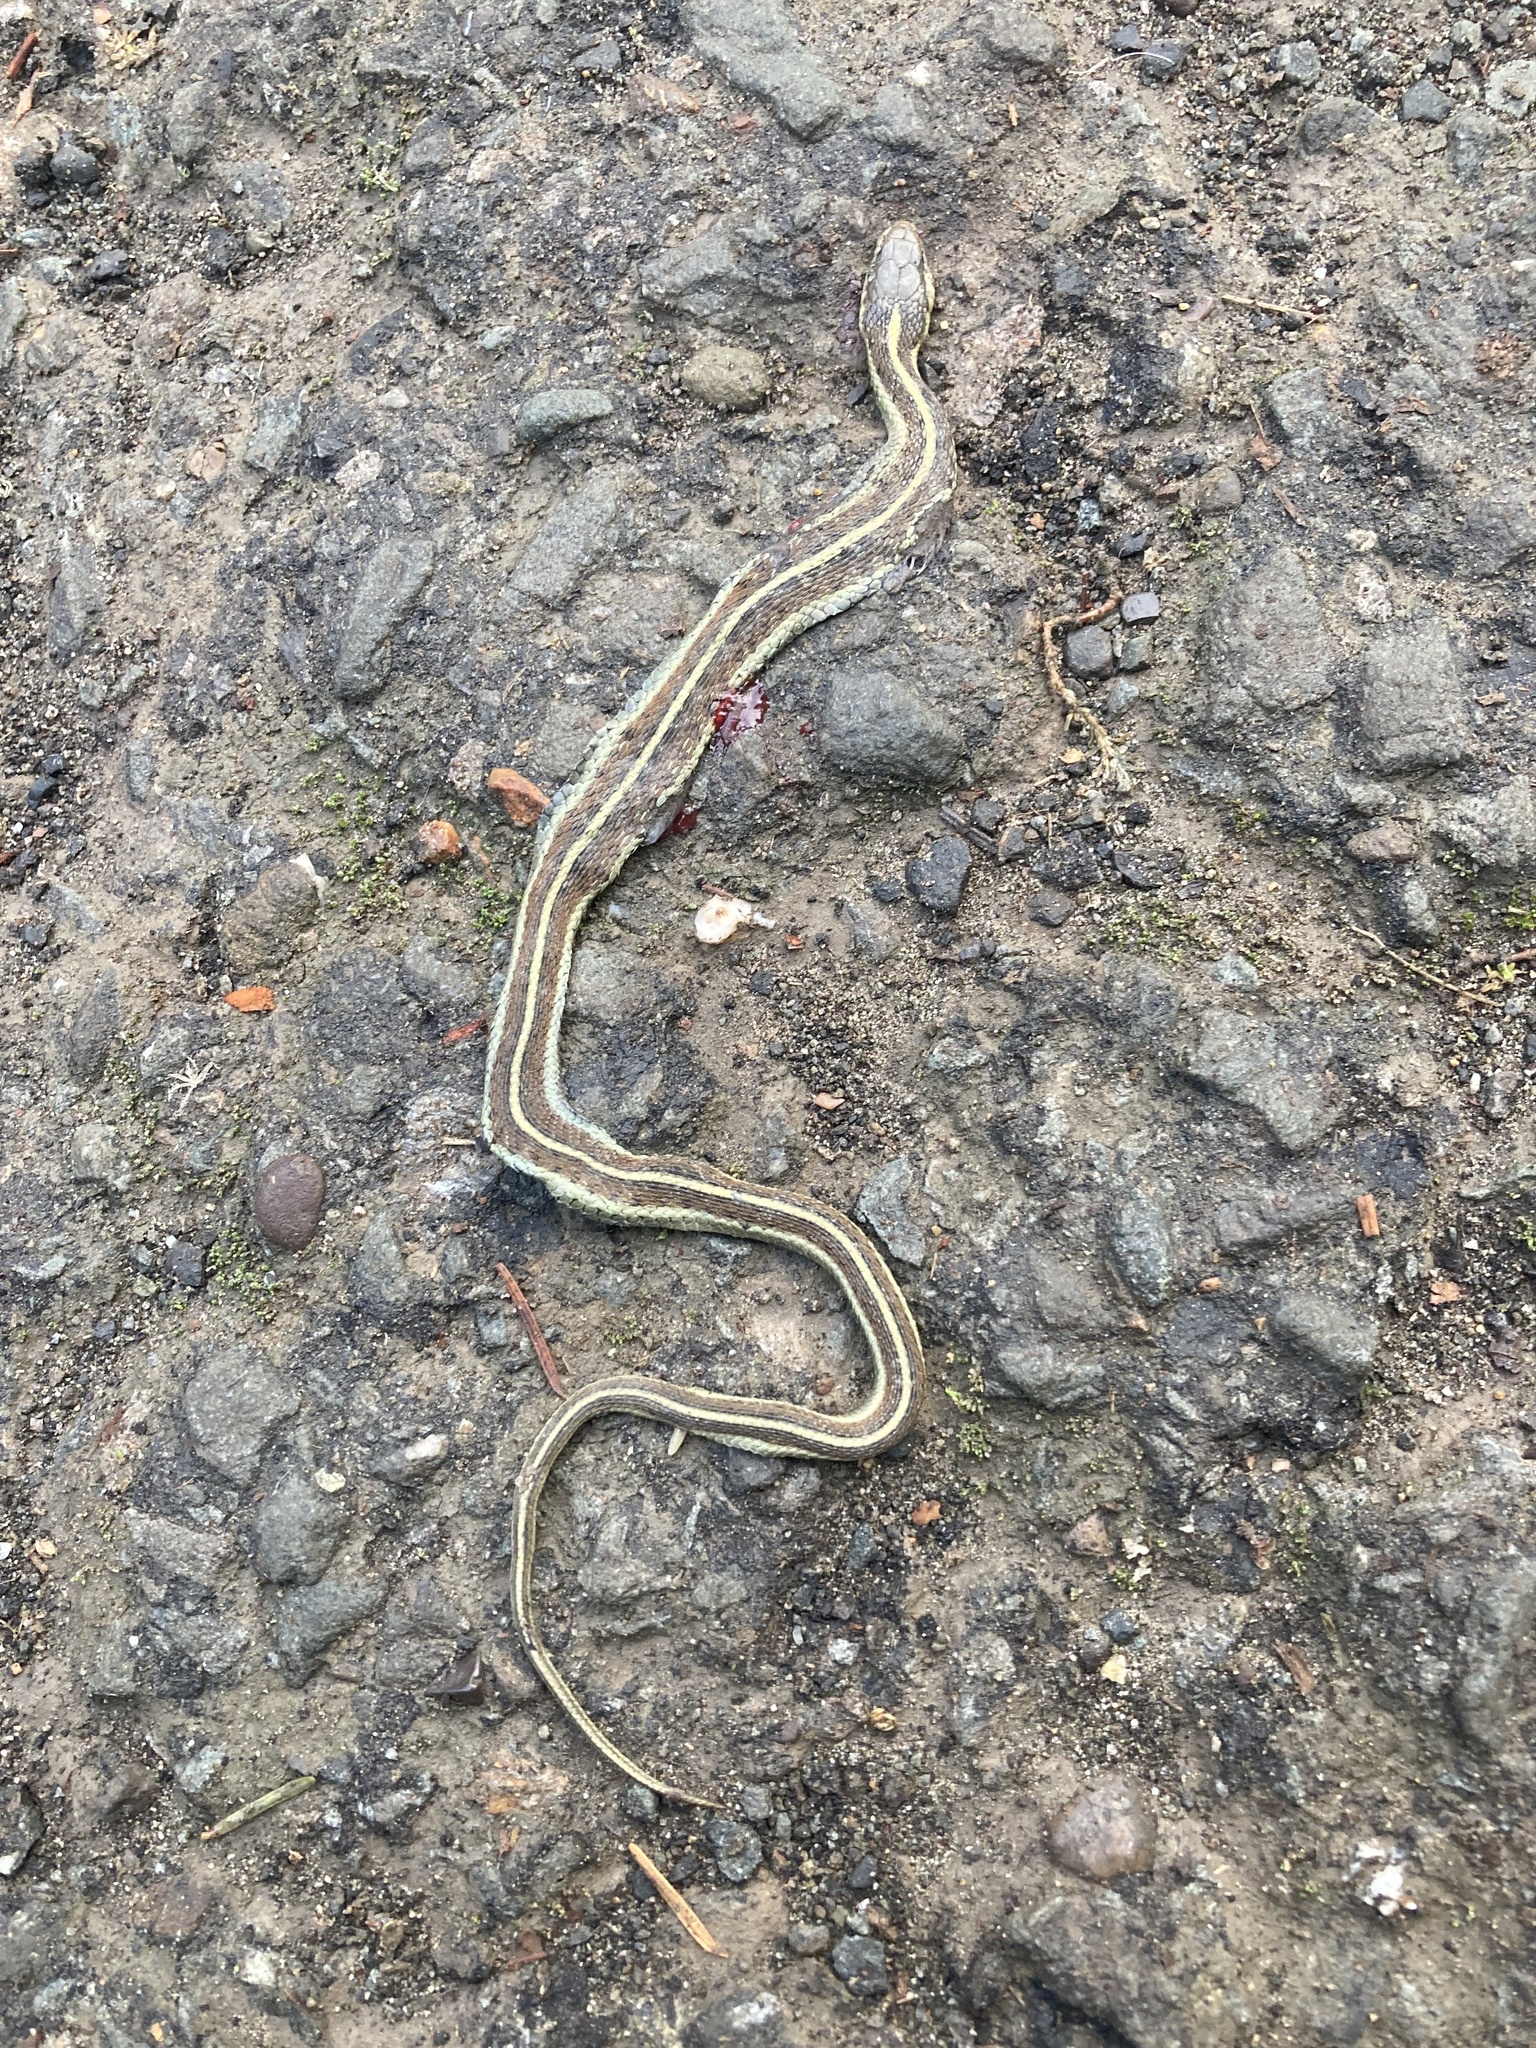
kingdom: Animalia
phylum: Chordata
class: Squamata
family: Colubridae
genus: Thamnophis
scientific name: Thamnophis elegans
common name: Western terrestrial garter snake
